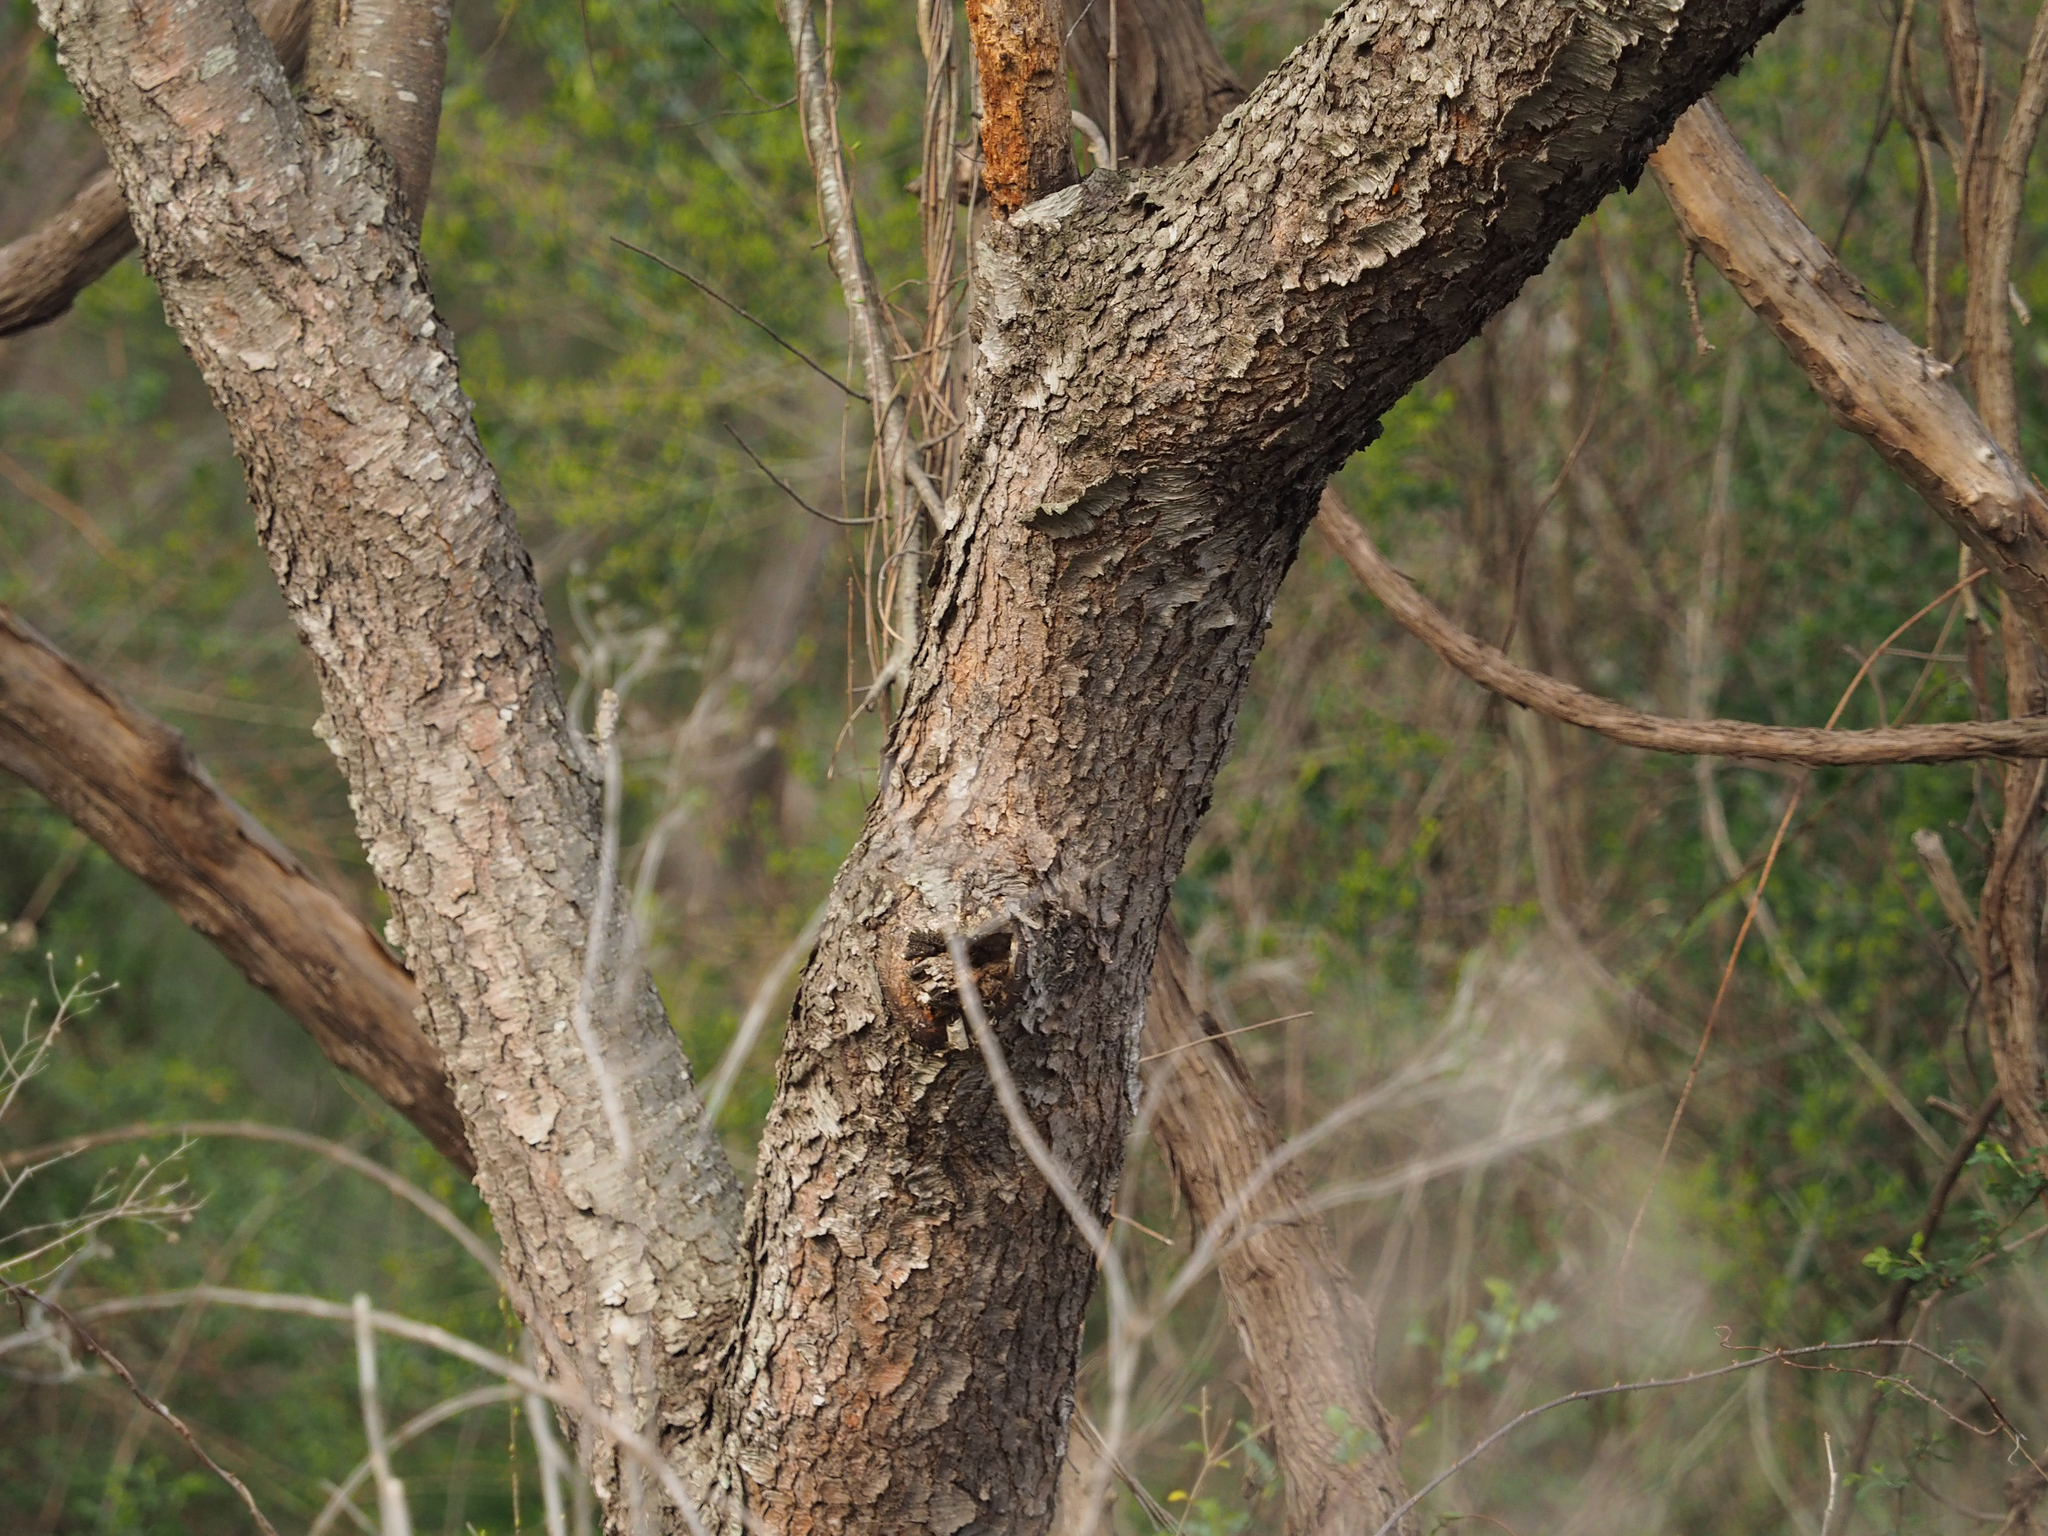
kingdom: Plantae
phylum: Tracheophyta
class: Magnoliopsida
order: Rosales
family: Rosaceae
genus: Prunus
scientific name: Prunus serotina
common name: Black cherry
